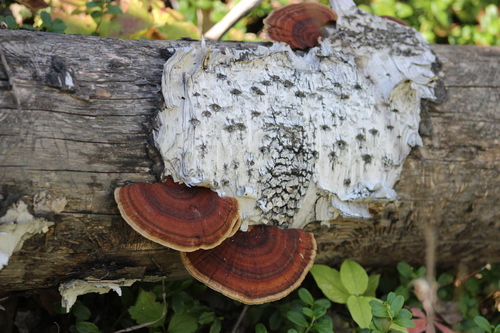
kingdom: Fungi
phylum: Basidiomycota
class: Agaricomycetes
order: Polyporales
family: Polyporaceae
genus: Daedaleopsis
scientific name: Daedaleopsis tricolor
